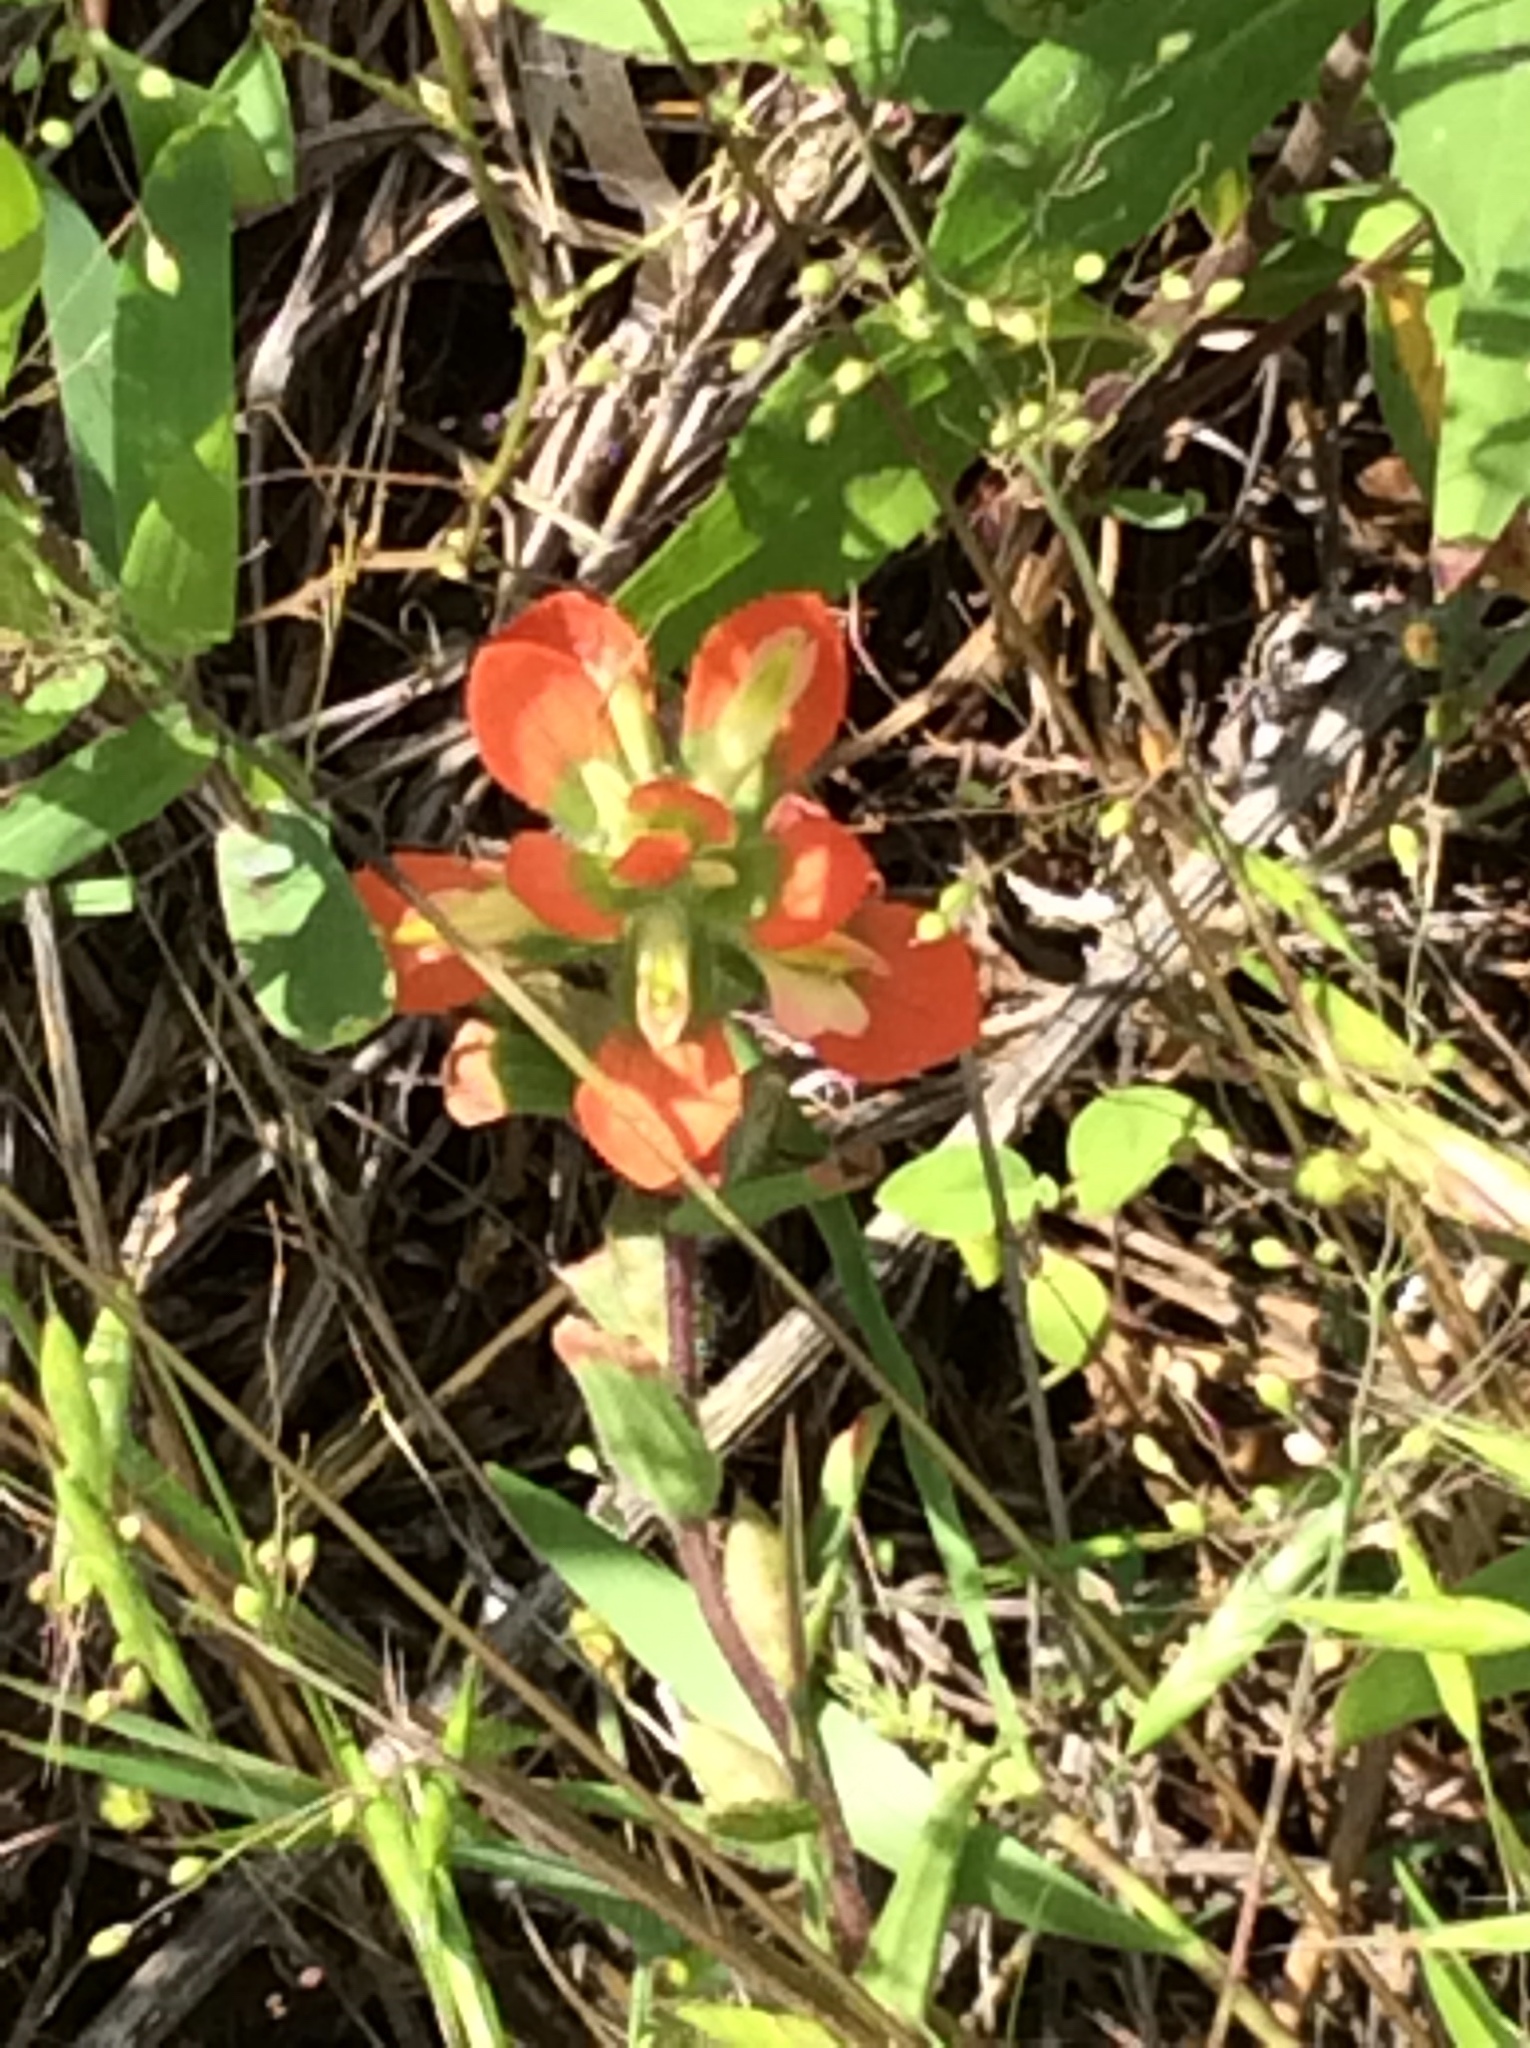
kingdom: Plantae
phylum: Tracheophyta
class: Magnoliopsida
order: Lamiales
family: Orobanchaceae
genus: Castilleja
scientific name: Castilleja indivisa
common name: Texas paintbrush
